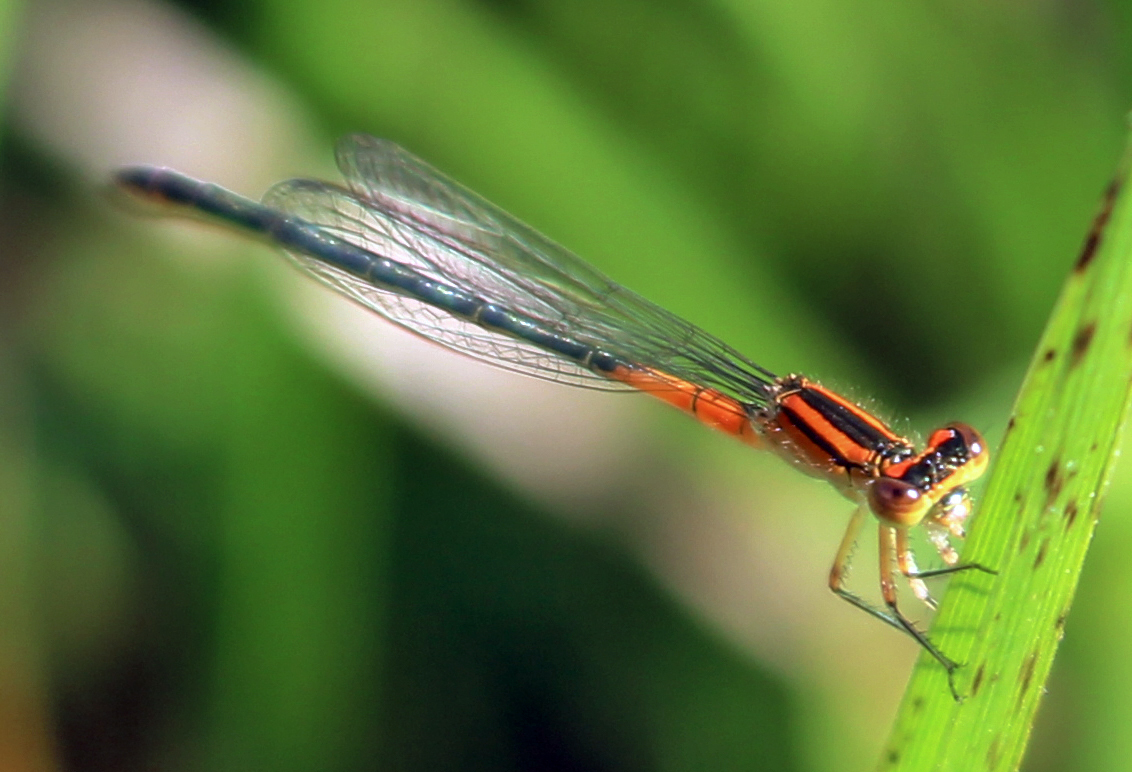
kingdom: Animalia
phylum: Arthropoda
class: Insecta
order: Odonata
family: Coenagrionidae
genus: Ischnura
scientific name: Ischnura verticalis
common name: Eastern forktail
